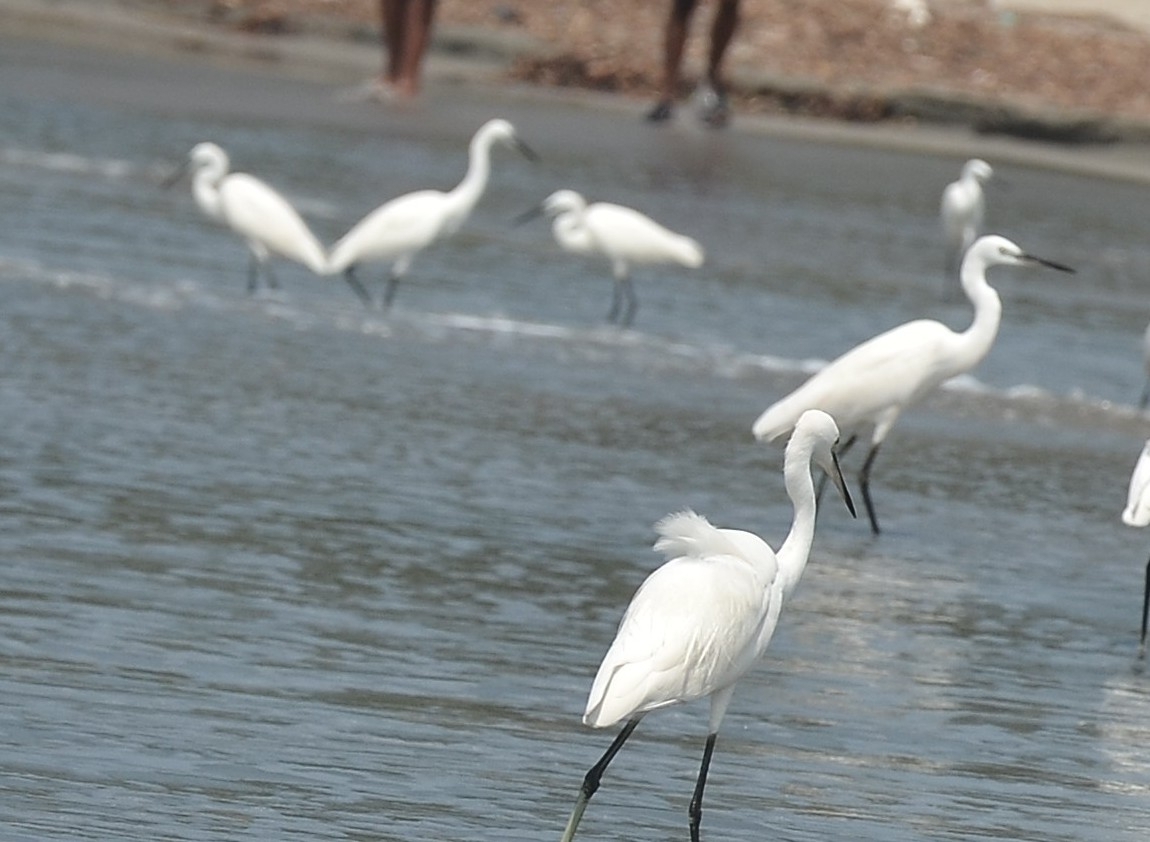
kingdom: Animalia
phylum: Chordata
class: Aves
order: Pelecaniformes
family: Ardeidae
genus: Egretta
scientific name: Egretta garzetta
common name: Little egret
